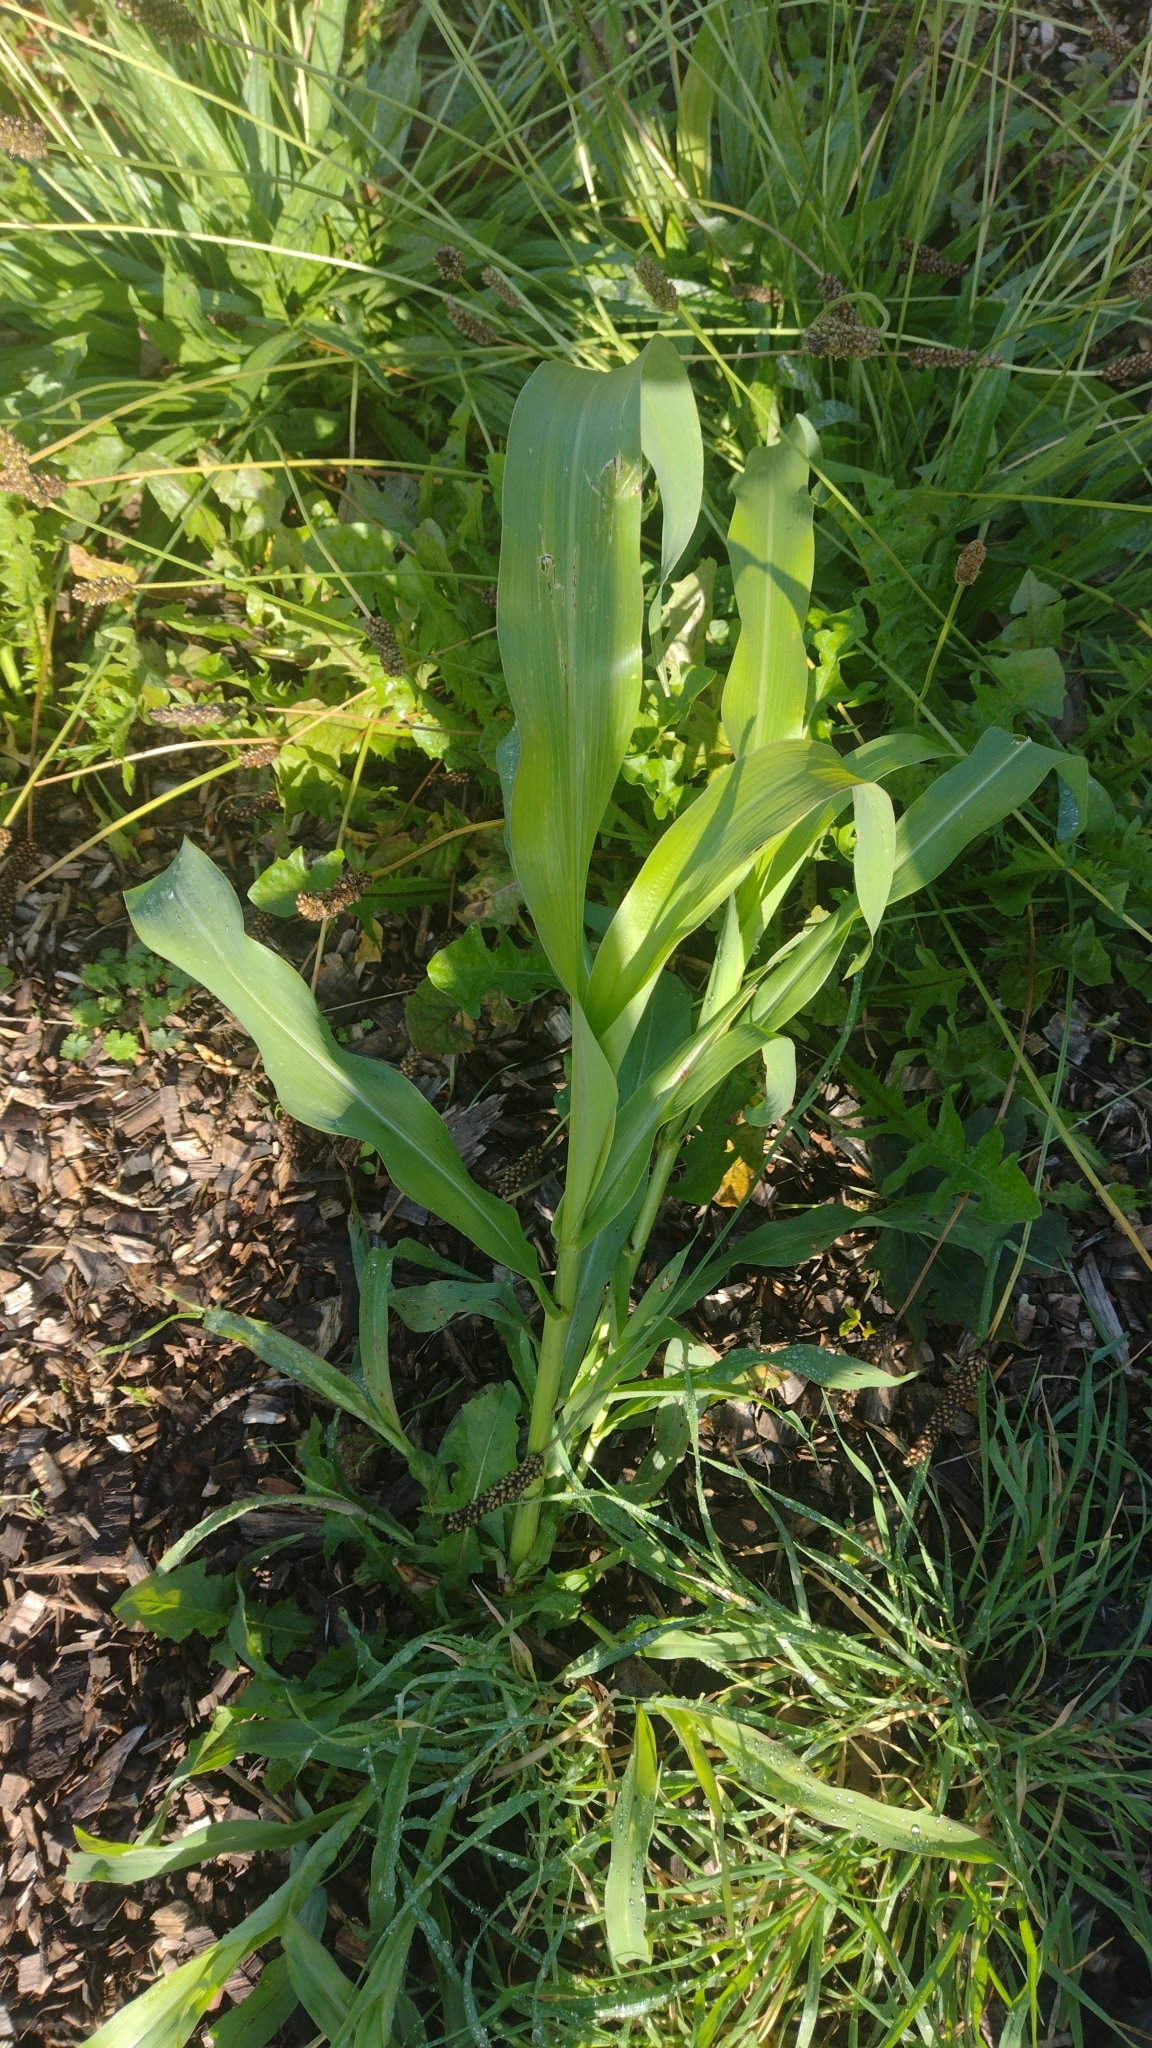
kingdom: Plantae
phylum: Tracheophyta
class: Liliopsida
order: Poales
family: Poaceae
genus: Zea
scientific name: Zea mays
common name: Maize
